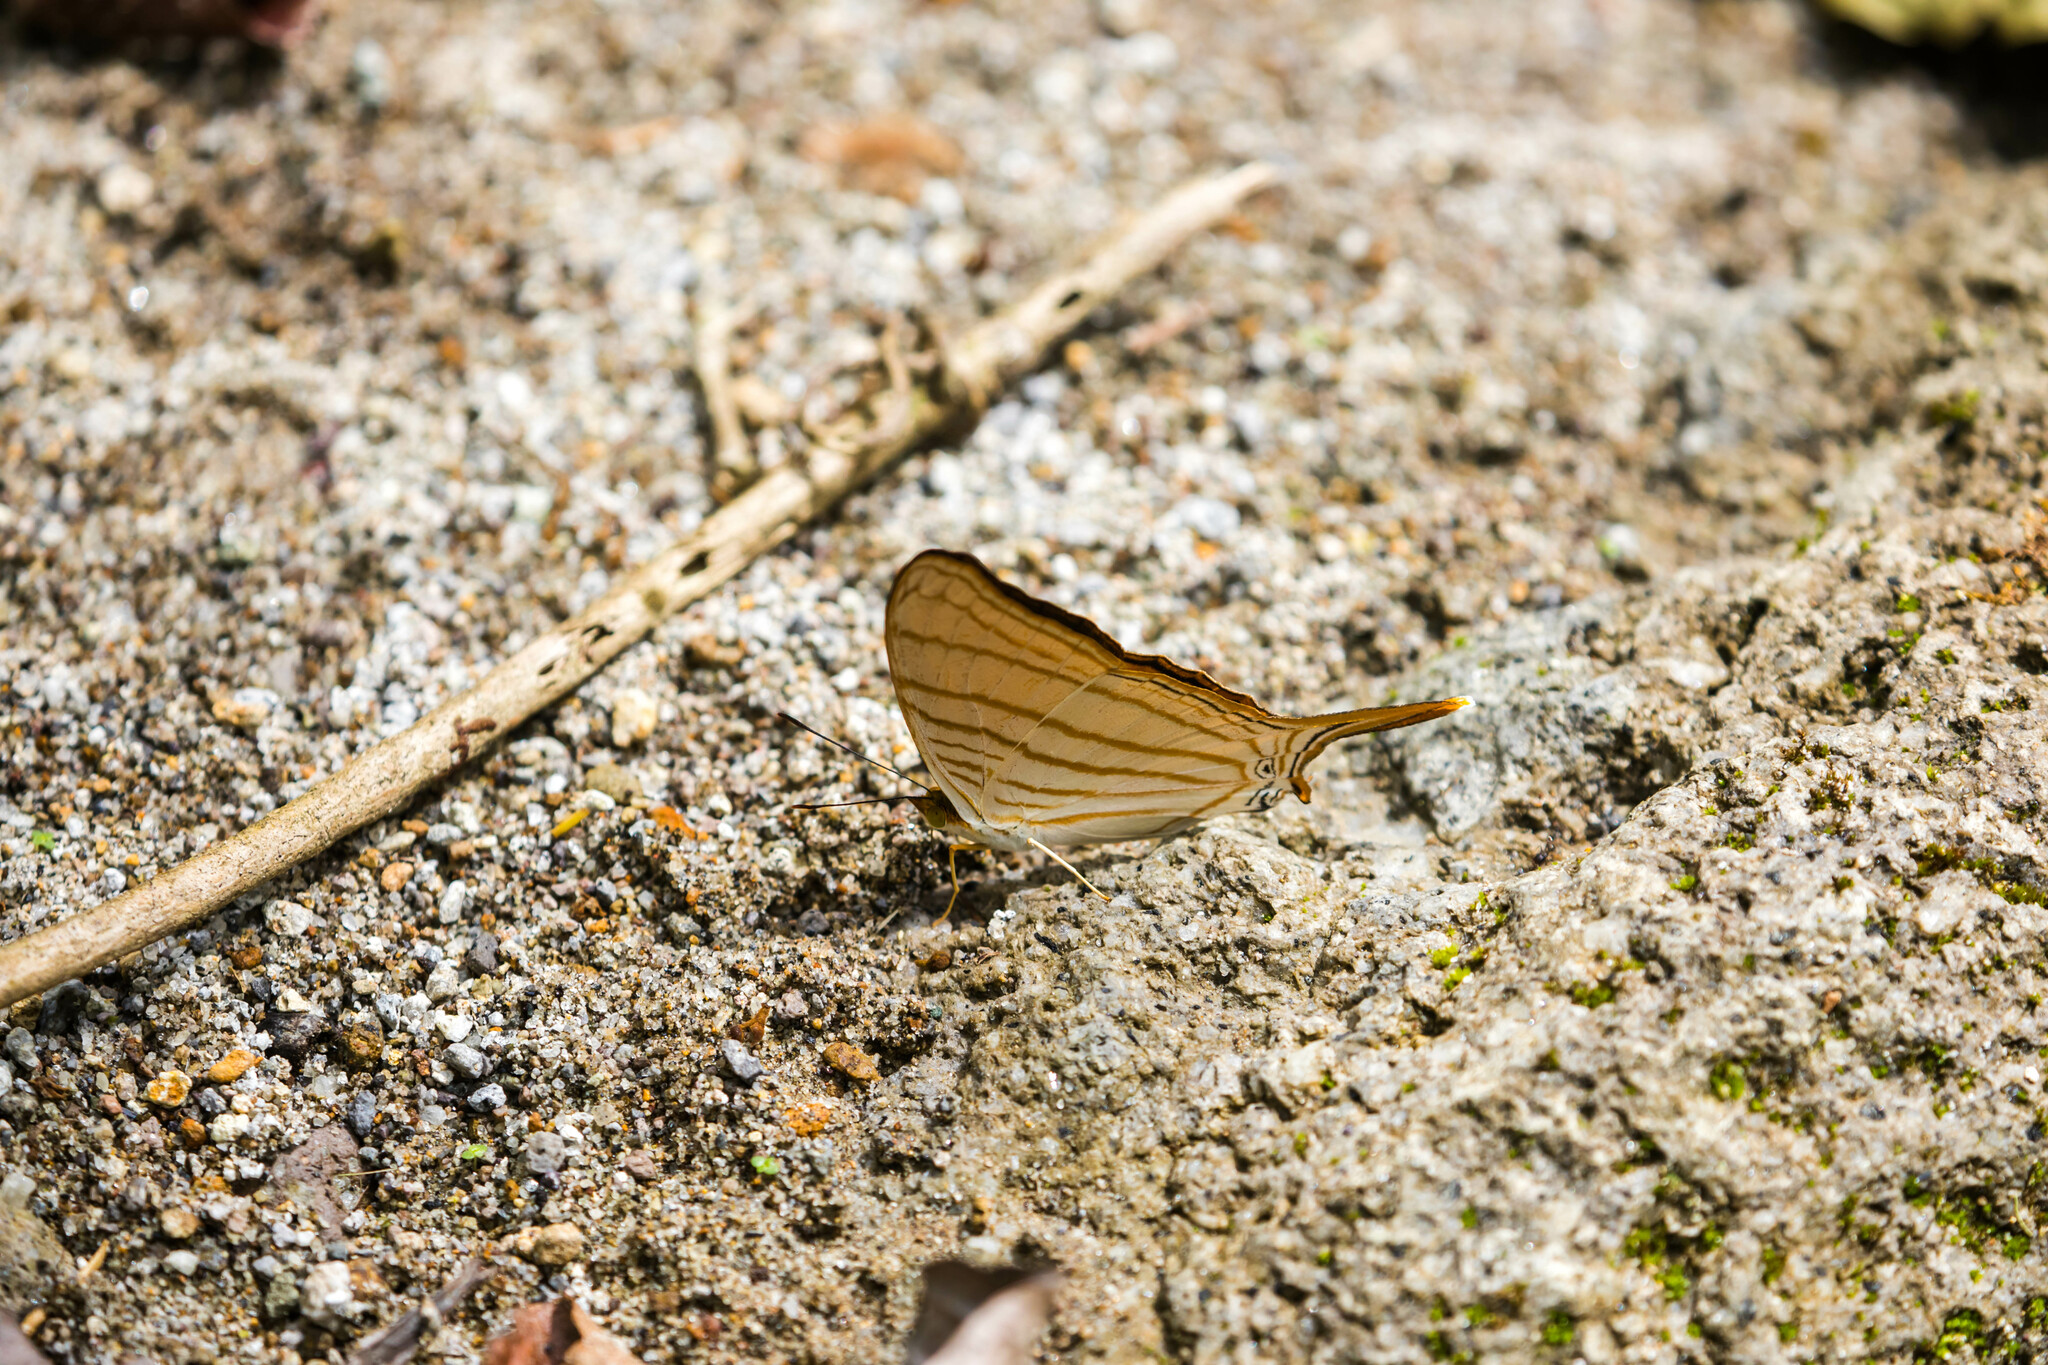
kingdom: Animalia
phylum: Arthropoda
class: Insecta
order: Lepidoptera
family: Nymphalidae
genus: Marpesia
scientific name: Marpesia berania
